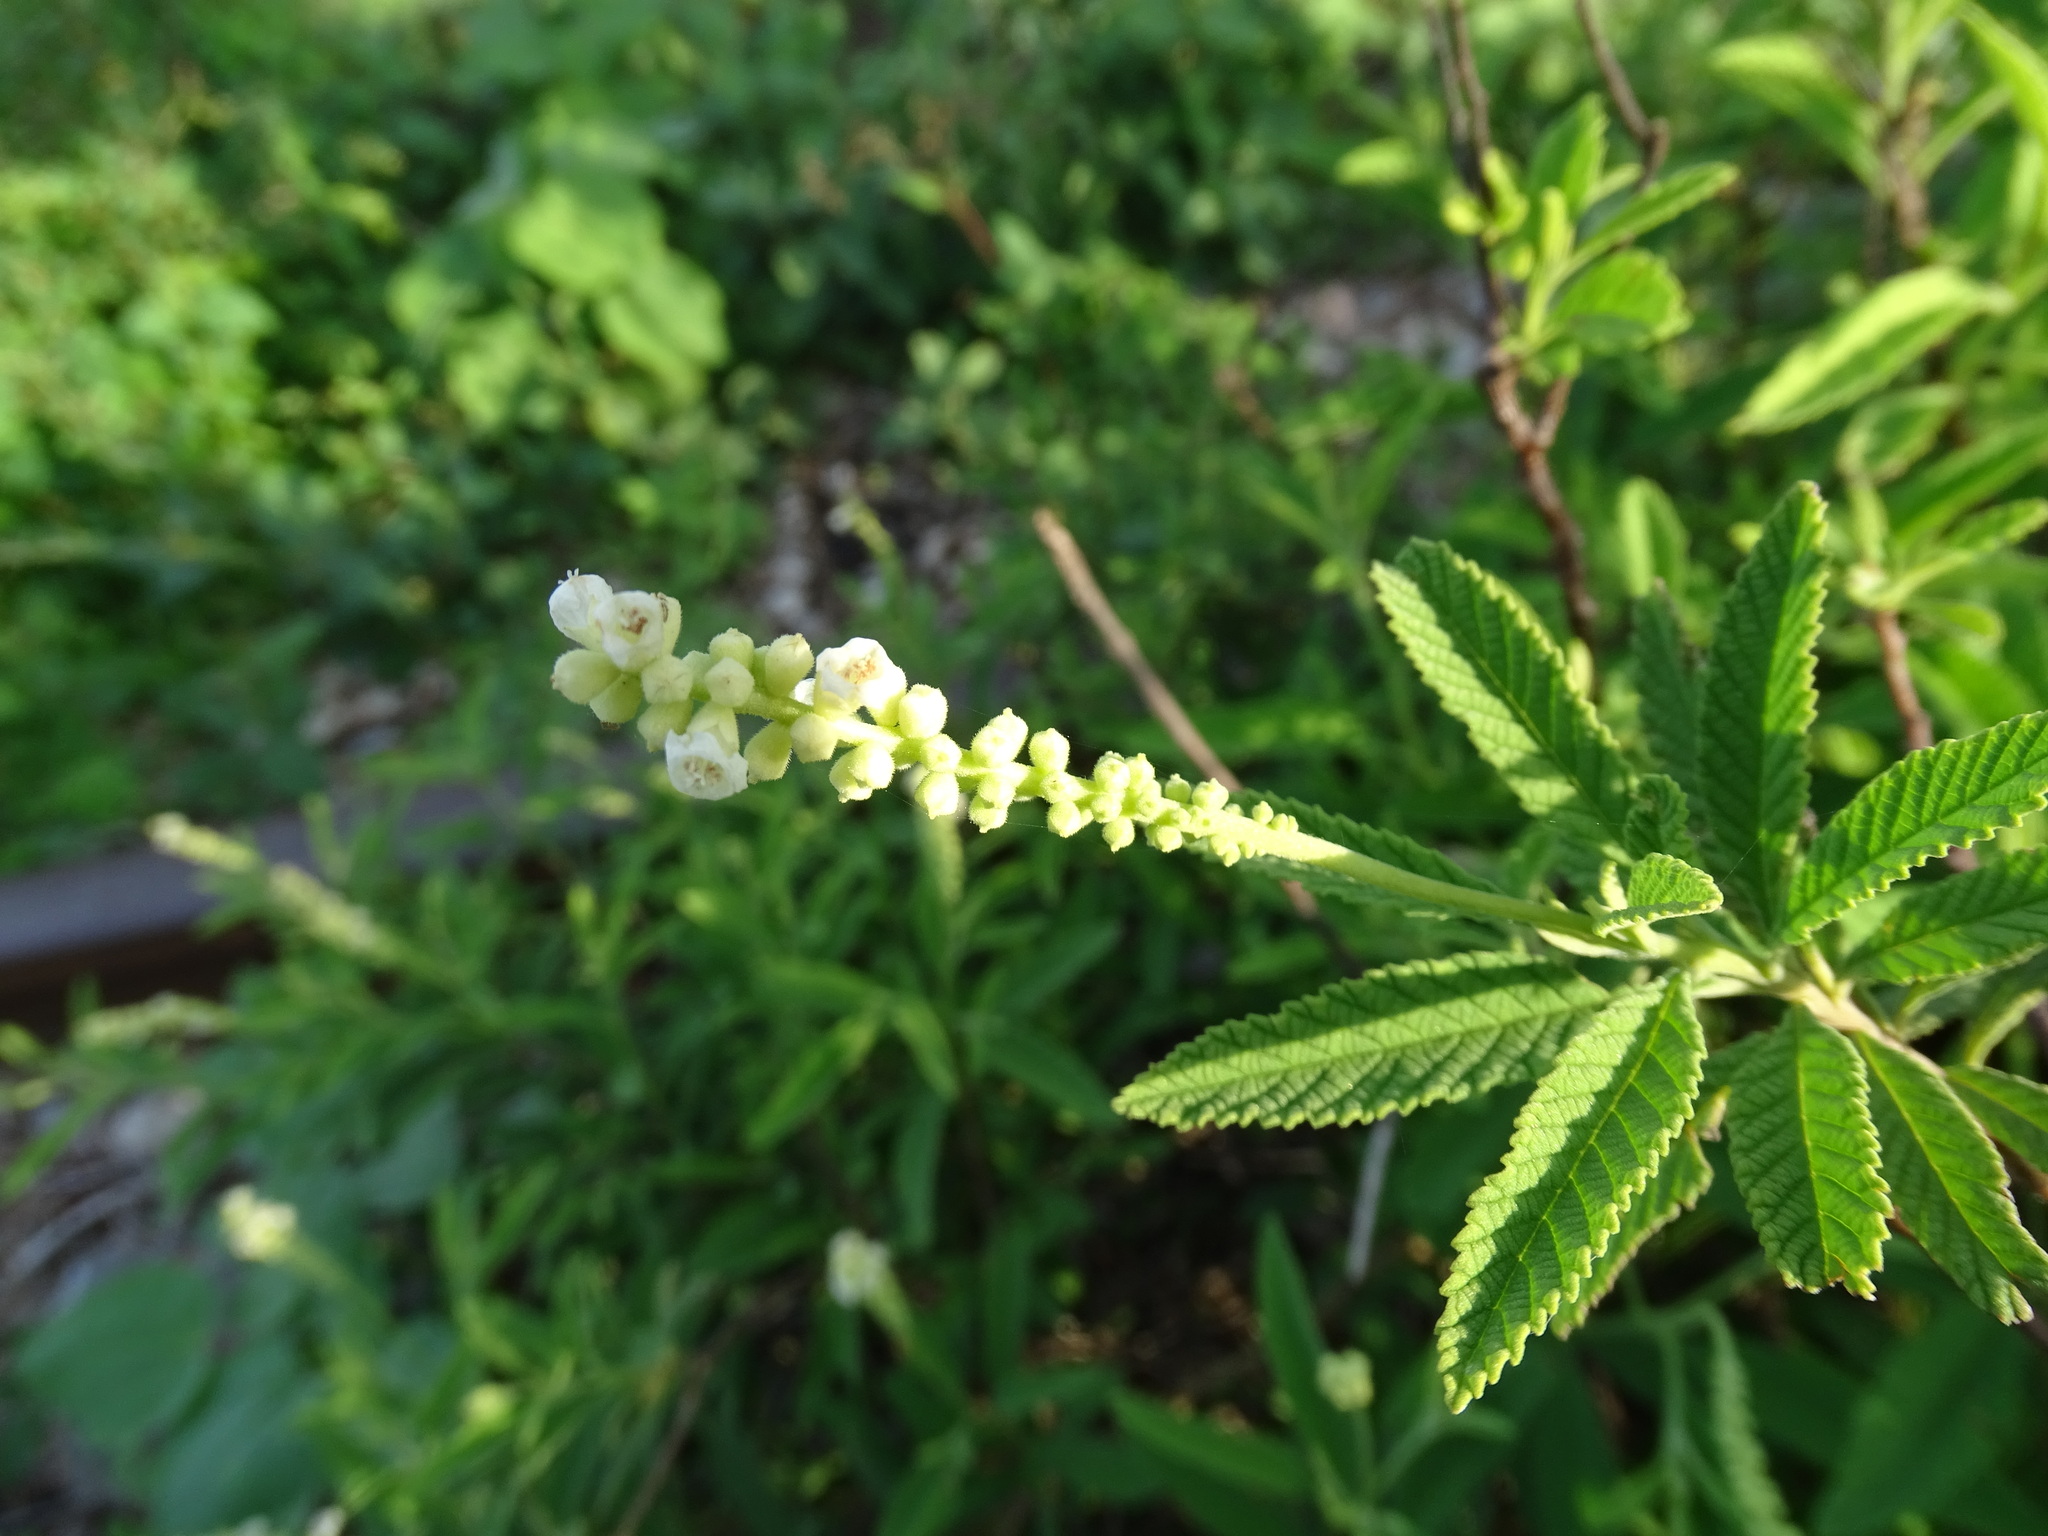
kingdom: Plantae
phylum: Tracheophyta
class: Magnoliopsida
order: Boraginales
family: Cordiaceae
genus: Varronia
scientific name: Varronia curassavica
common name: Black sage
